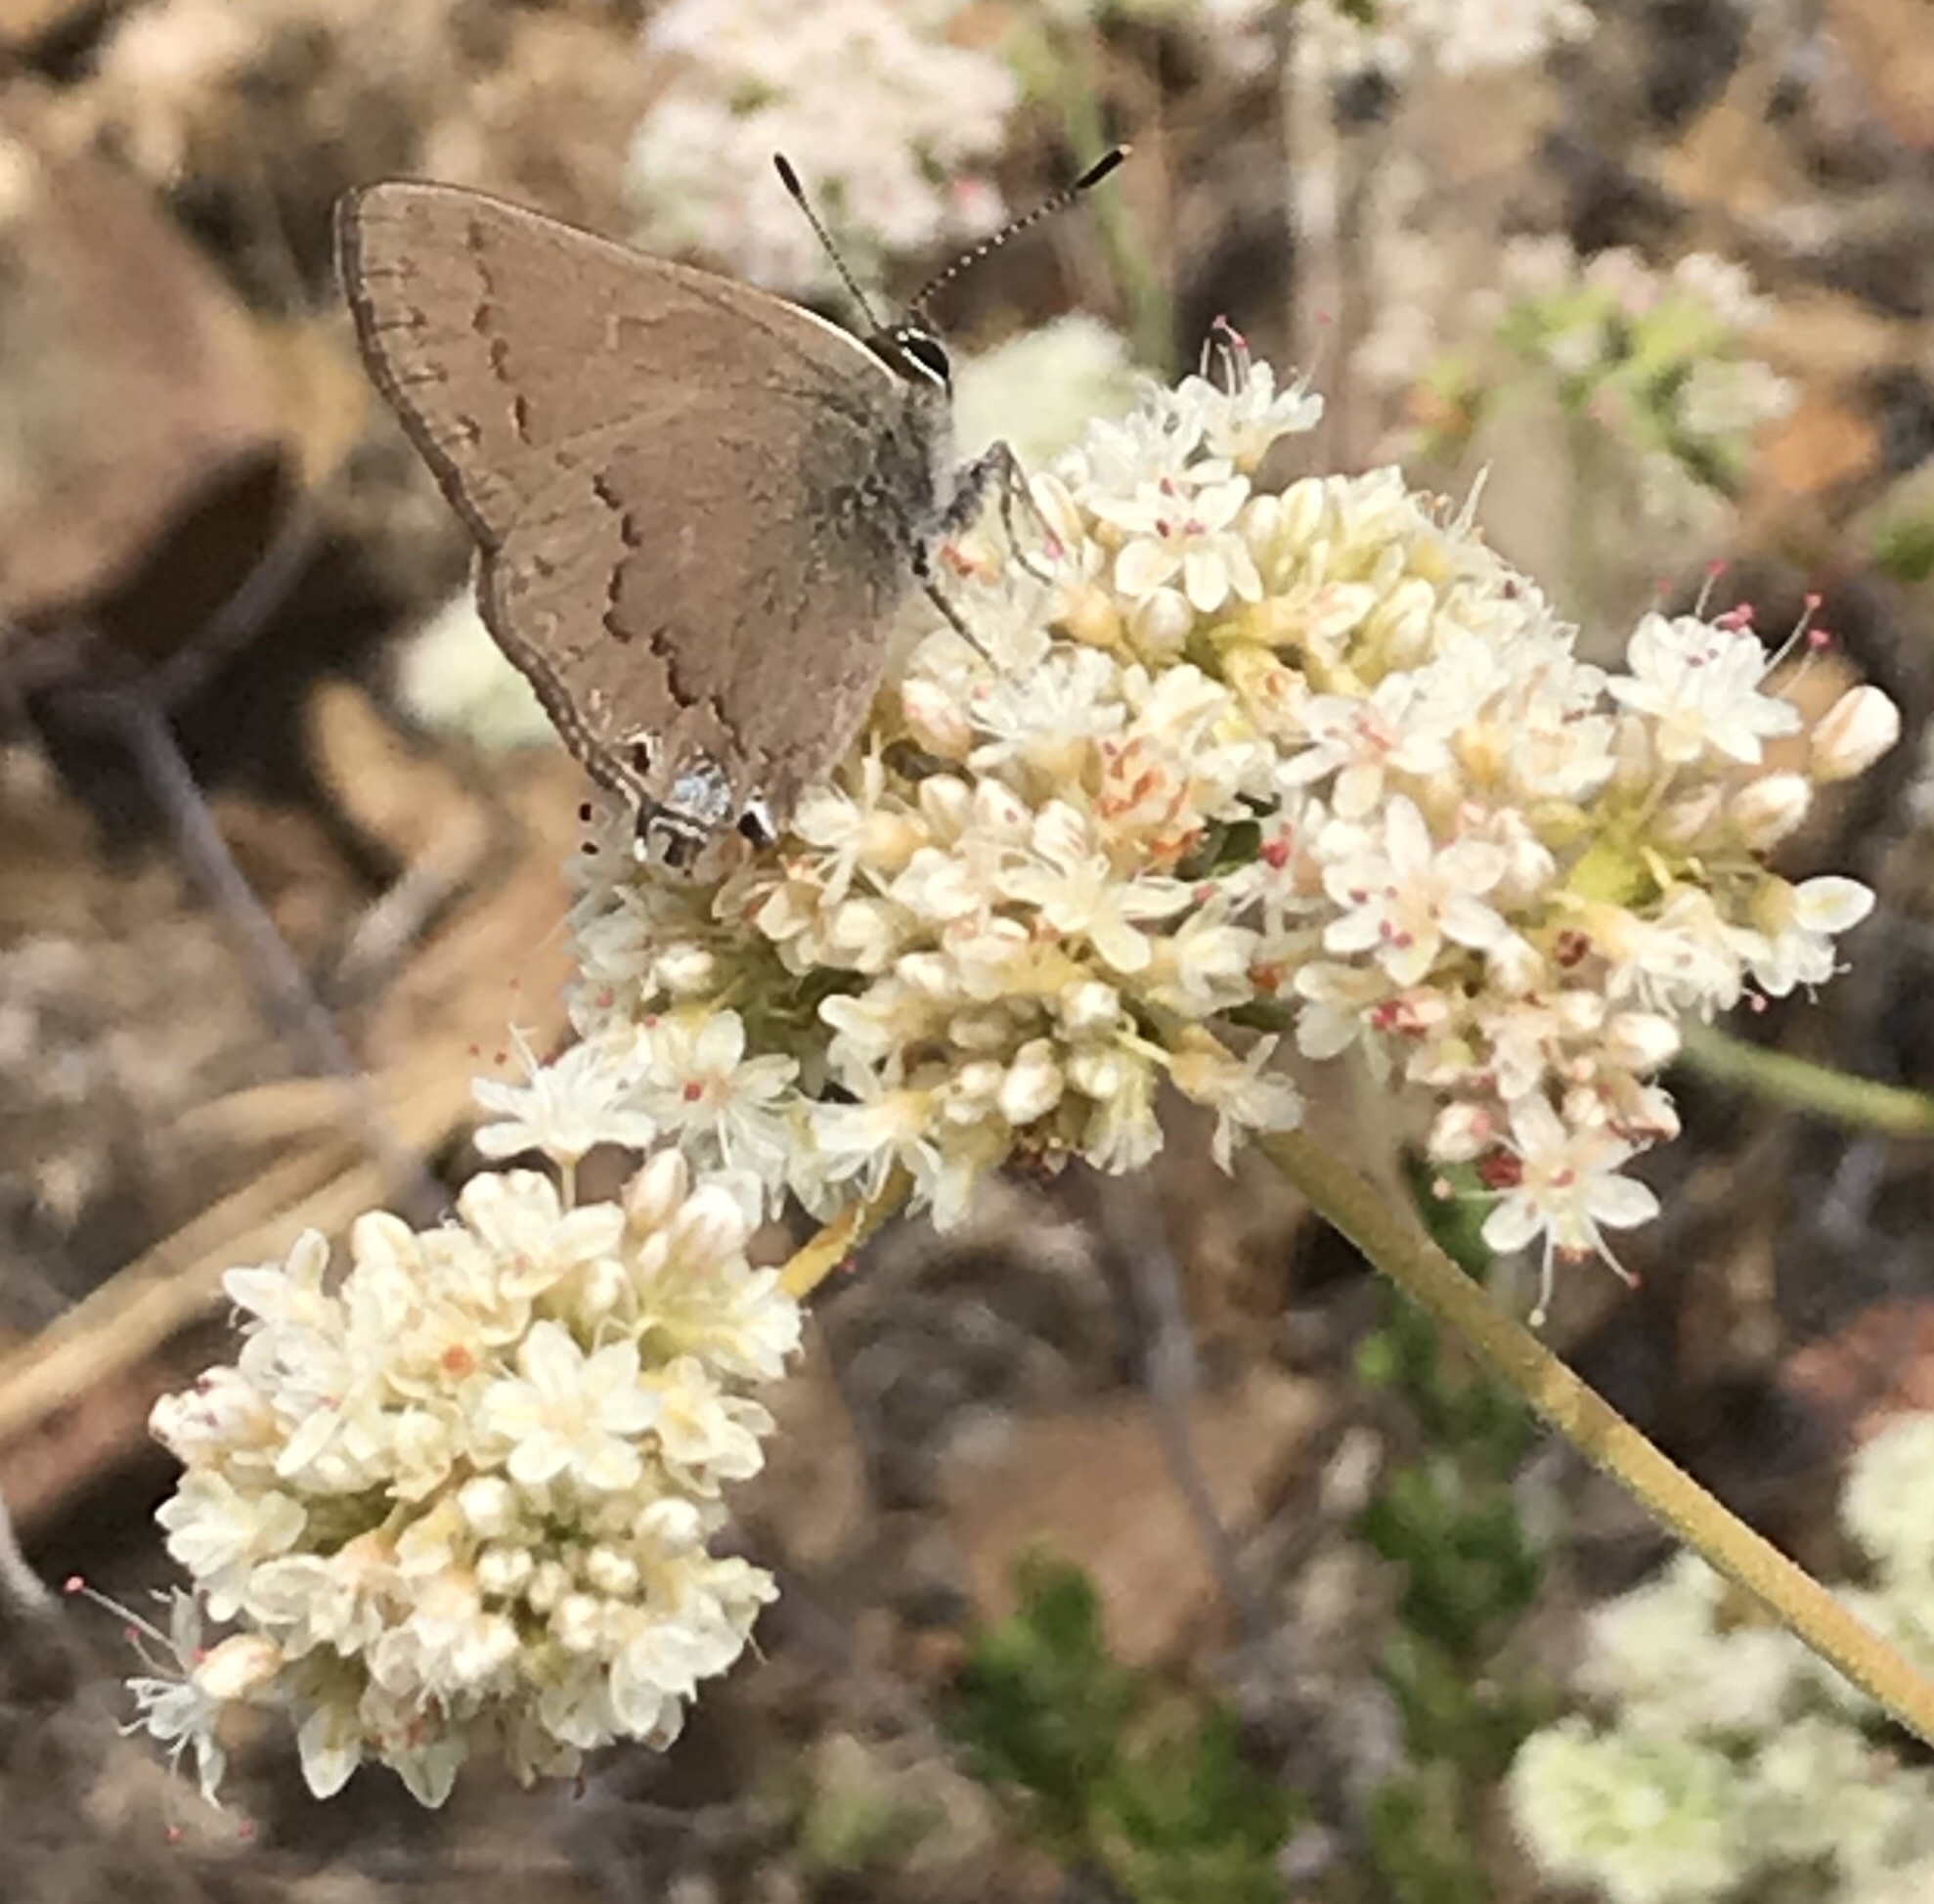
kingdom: Animalia
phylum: Arthropoda
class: Insecta
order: Lepidoptera
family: Lycaenidae
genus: Strymon
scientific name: Strymon saepium
